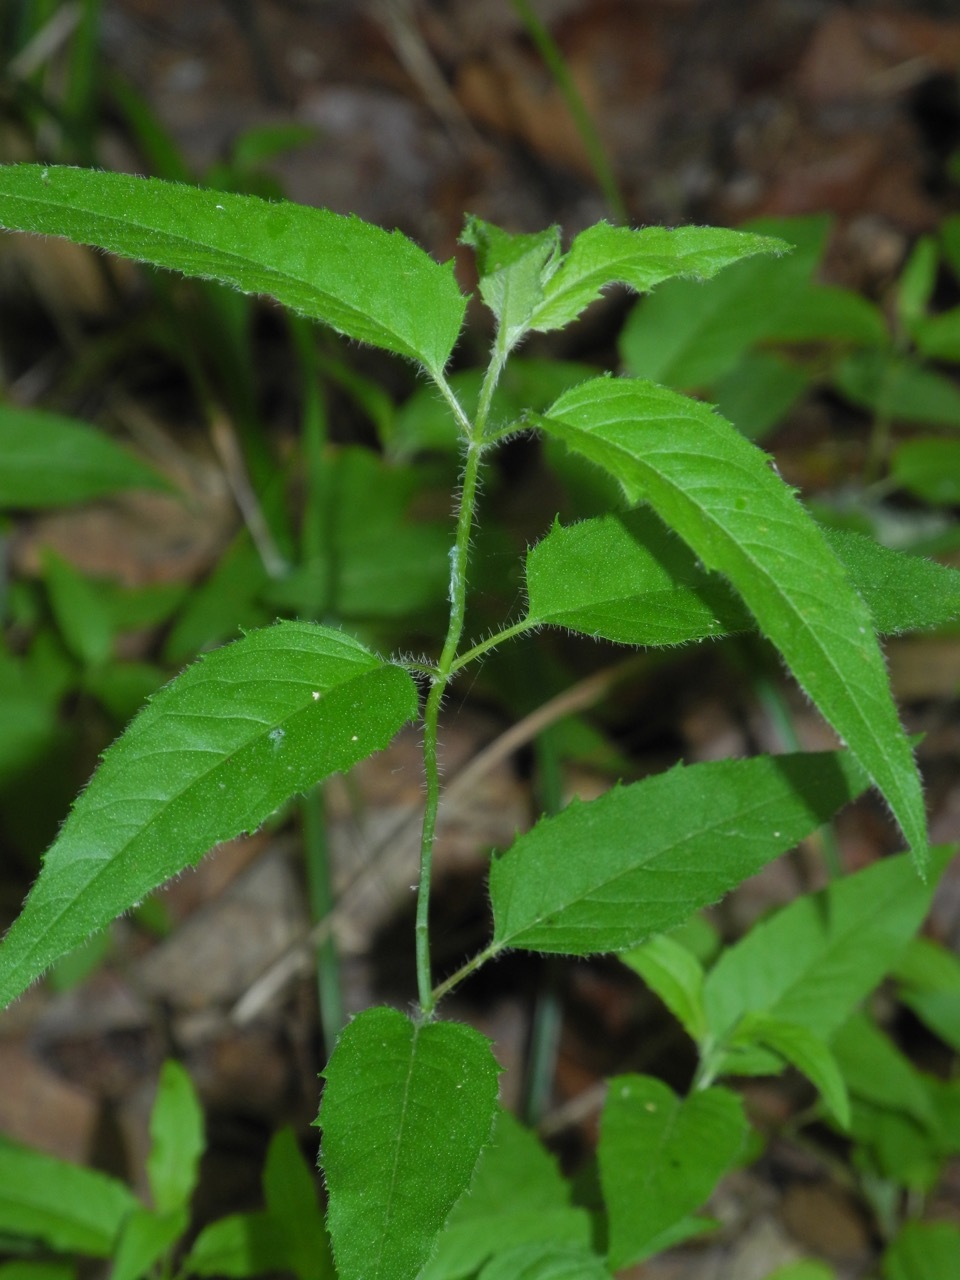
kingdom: Plantae
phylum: Tracheophyta
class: Magnoliopsida
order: Lamiales
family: Lamiaceae
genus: Blephilia
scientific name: Blephilia hirsuta
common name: Hairy blephilia
